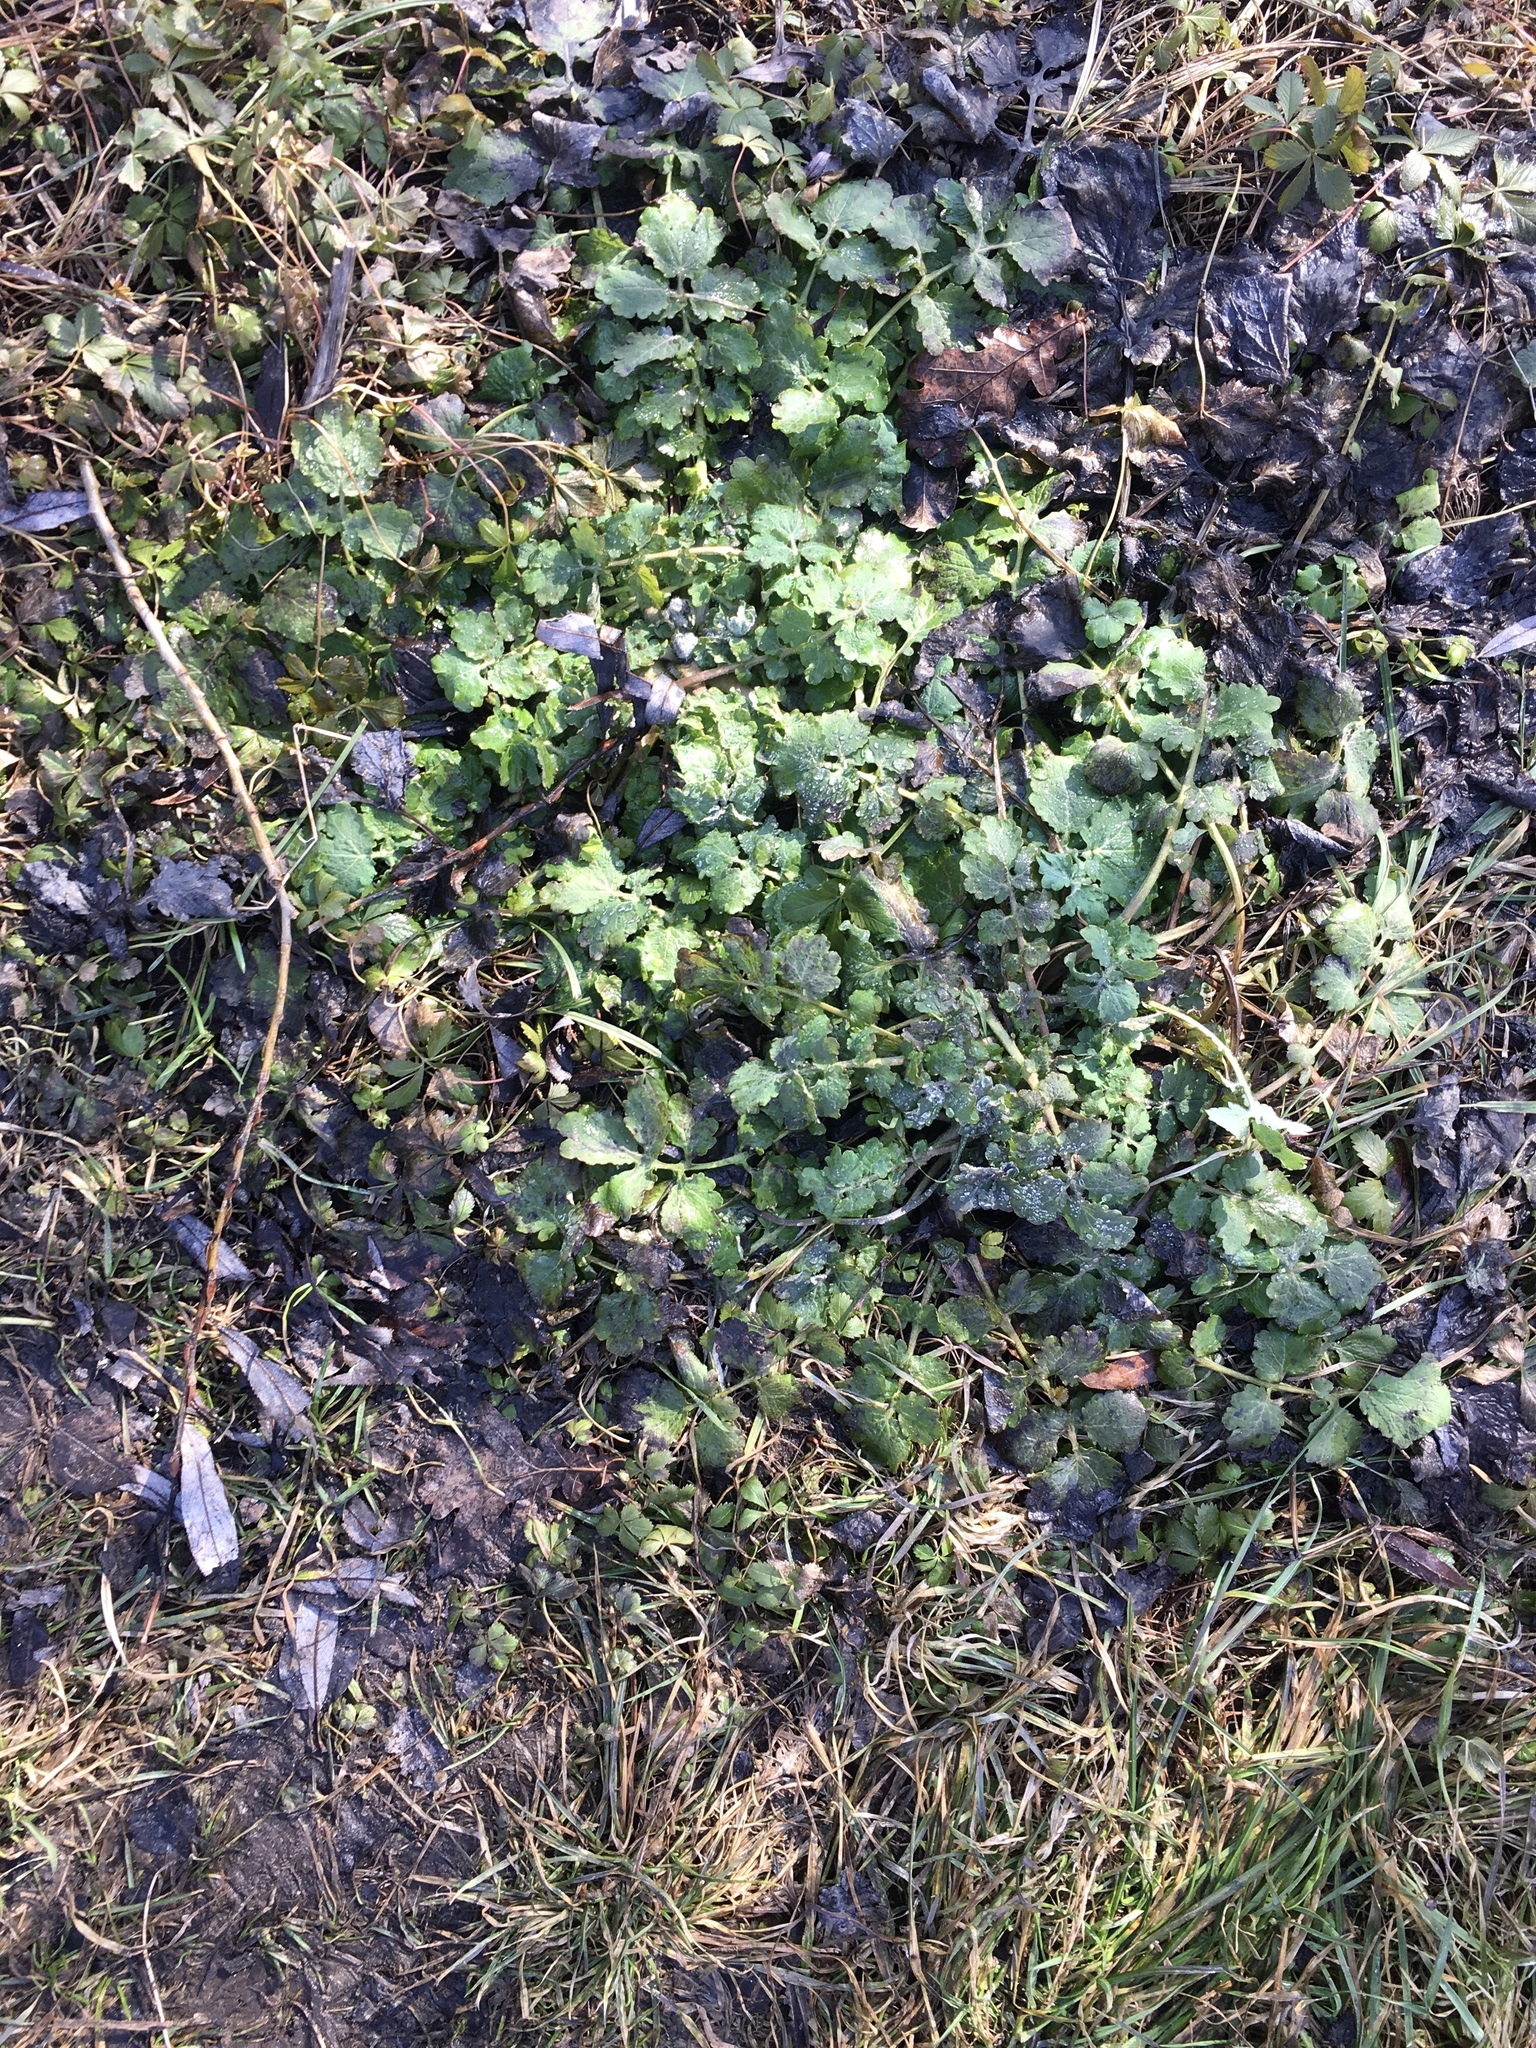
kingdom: Plantae
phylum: Tracheophyta
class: Magnoliopsida
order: Ranunculales
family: Papaveraceae
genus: Chelidonium
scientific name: Chelidonium majus
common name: Greater celandine
